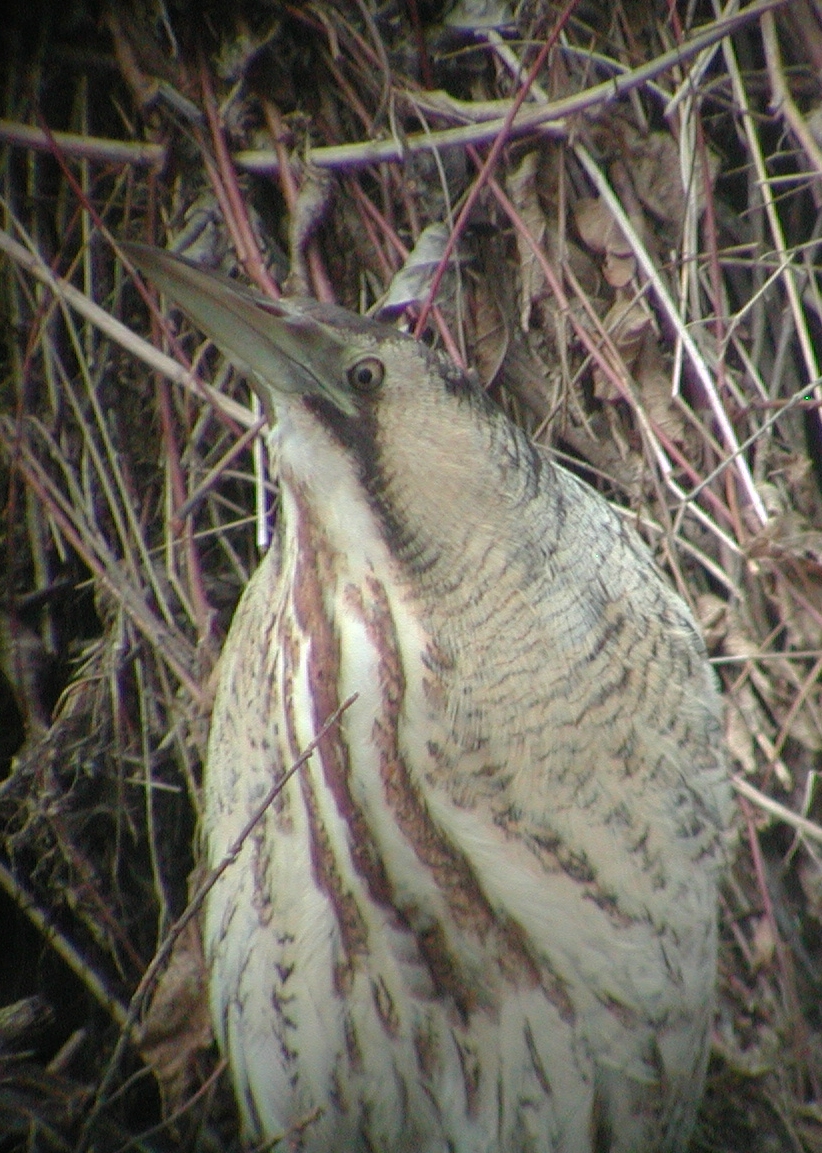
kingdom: Animalia
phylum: Chordata
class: Aves
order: Pelecaniformes
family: Ardeidae
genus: Botaurus
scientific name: Botaurus stellaris
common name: Eurasian bittern
